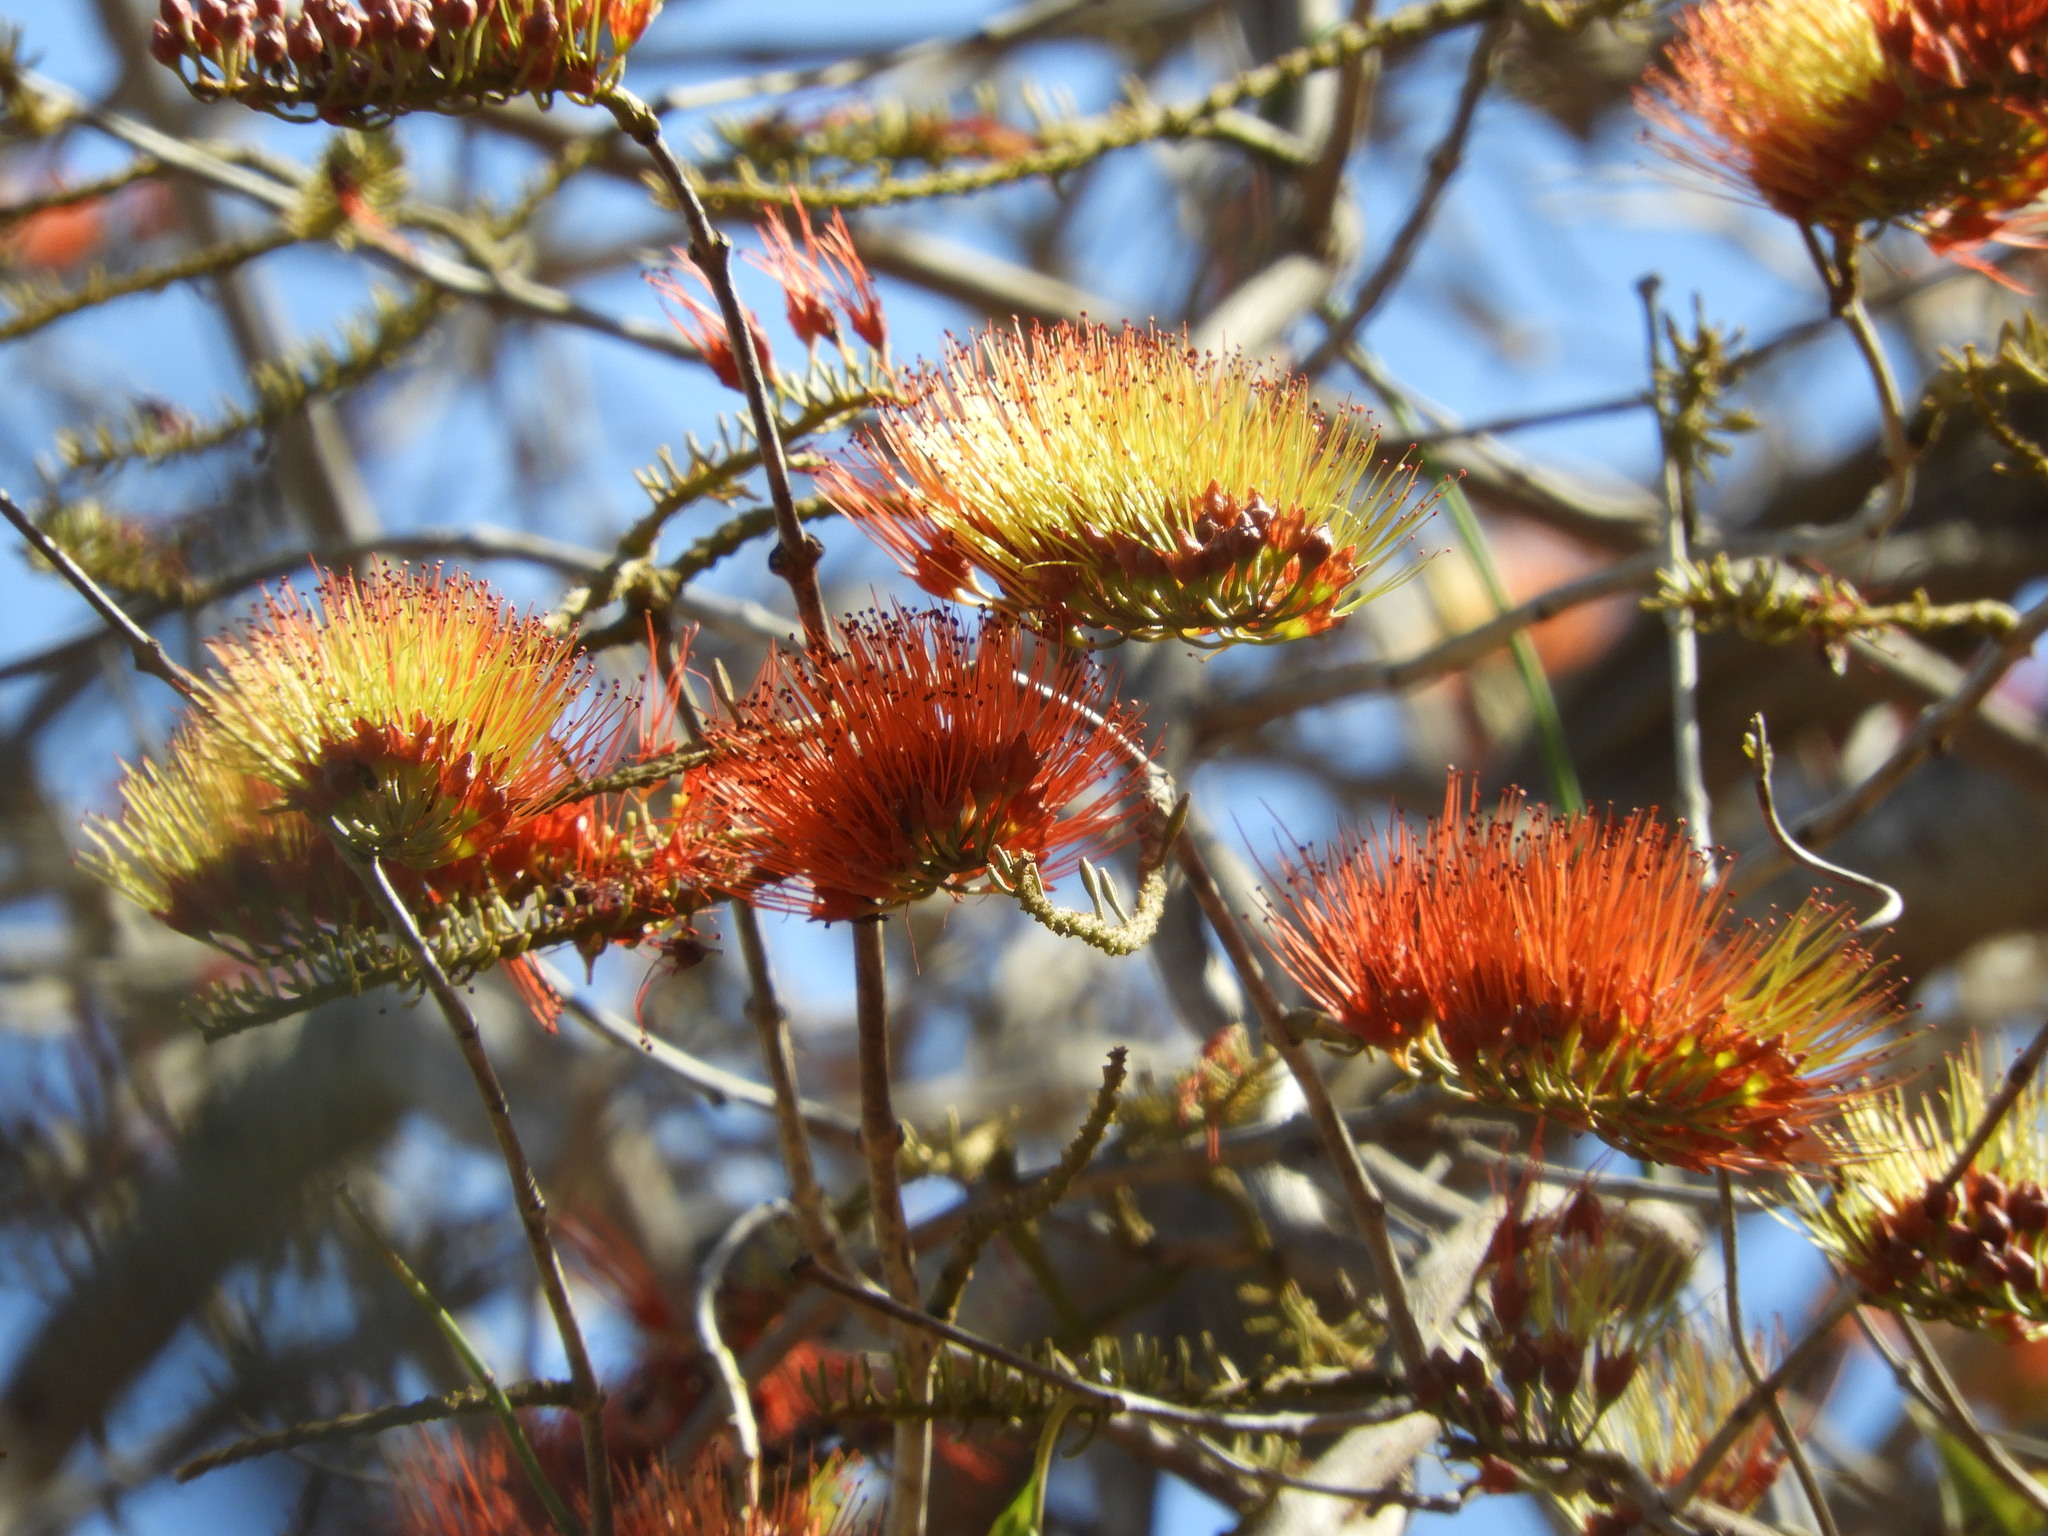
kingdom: Plantae
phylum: Tracheophyta
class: Magnoliopsida
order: Myrtales
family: Combretaceae
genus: Combretum
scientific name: Combretum farinosum
